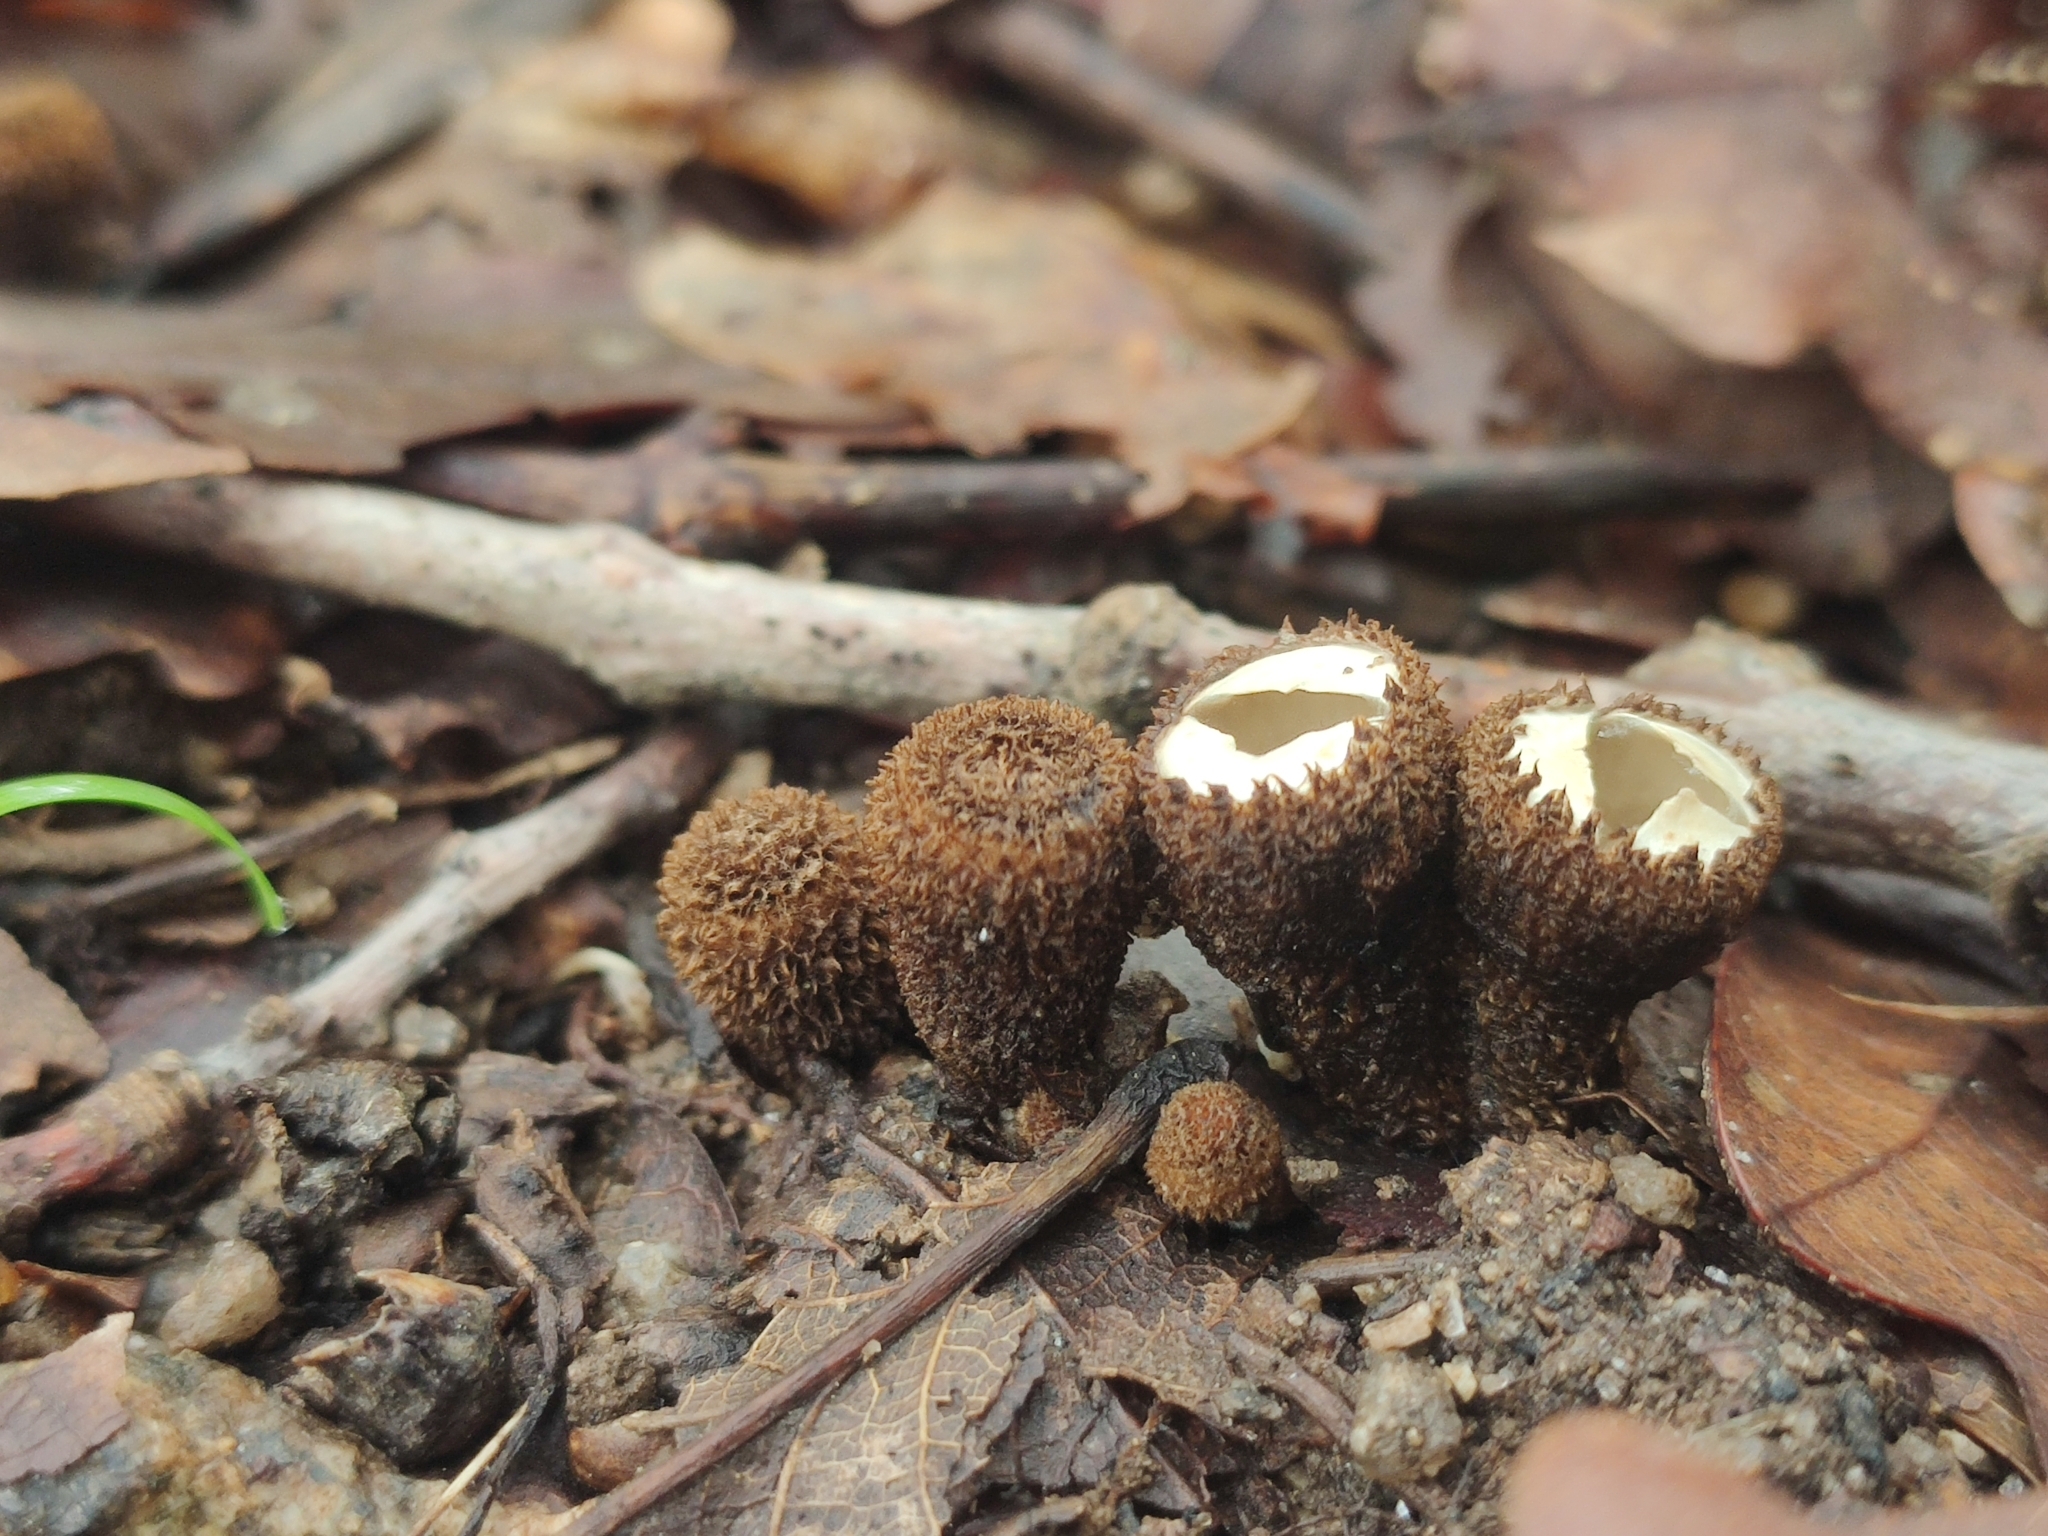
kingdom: Fungi
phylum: Basidiomycota
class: Agaricomycetes
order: Agaricales
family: Agaricaceae
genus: Cyathus
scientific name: Cyathus striatus
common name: Fluted bird's nest
